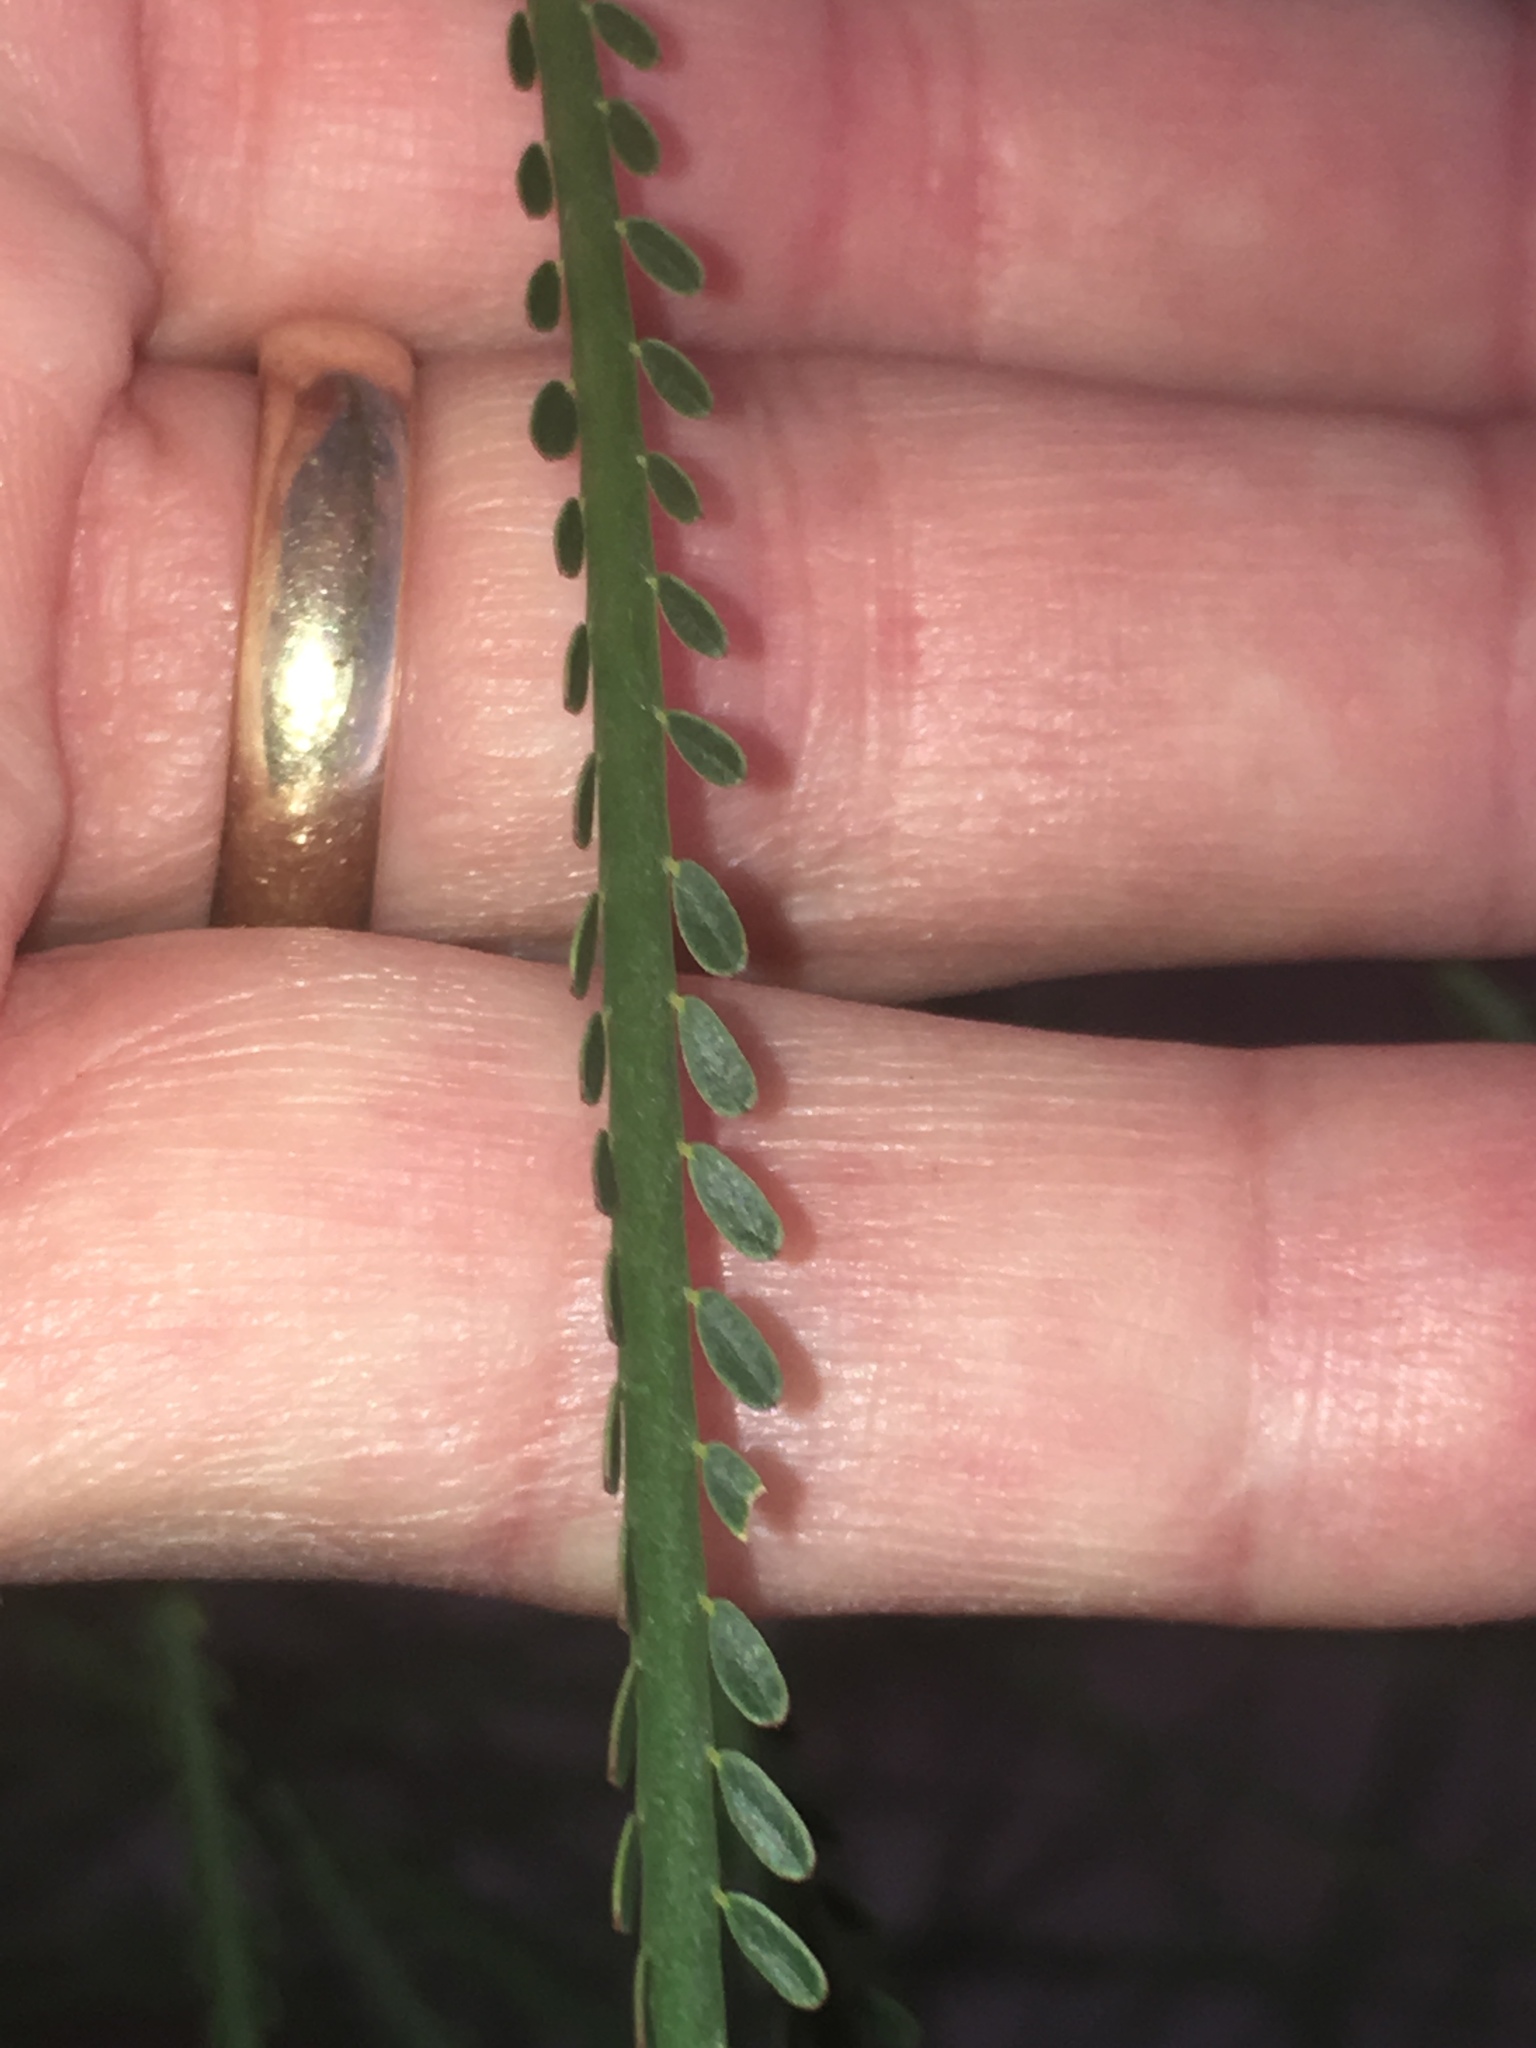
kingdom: Plantae
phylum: Tracheophyta
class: Magnoliopsida
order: Fabales
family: Fabaceae
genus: Parkinsonia
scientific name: Parkinsonia aculeata
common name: Jerusalem thorn
